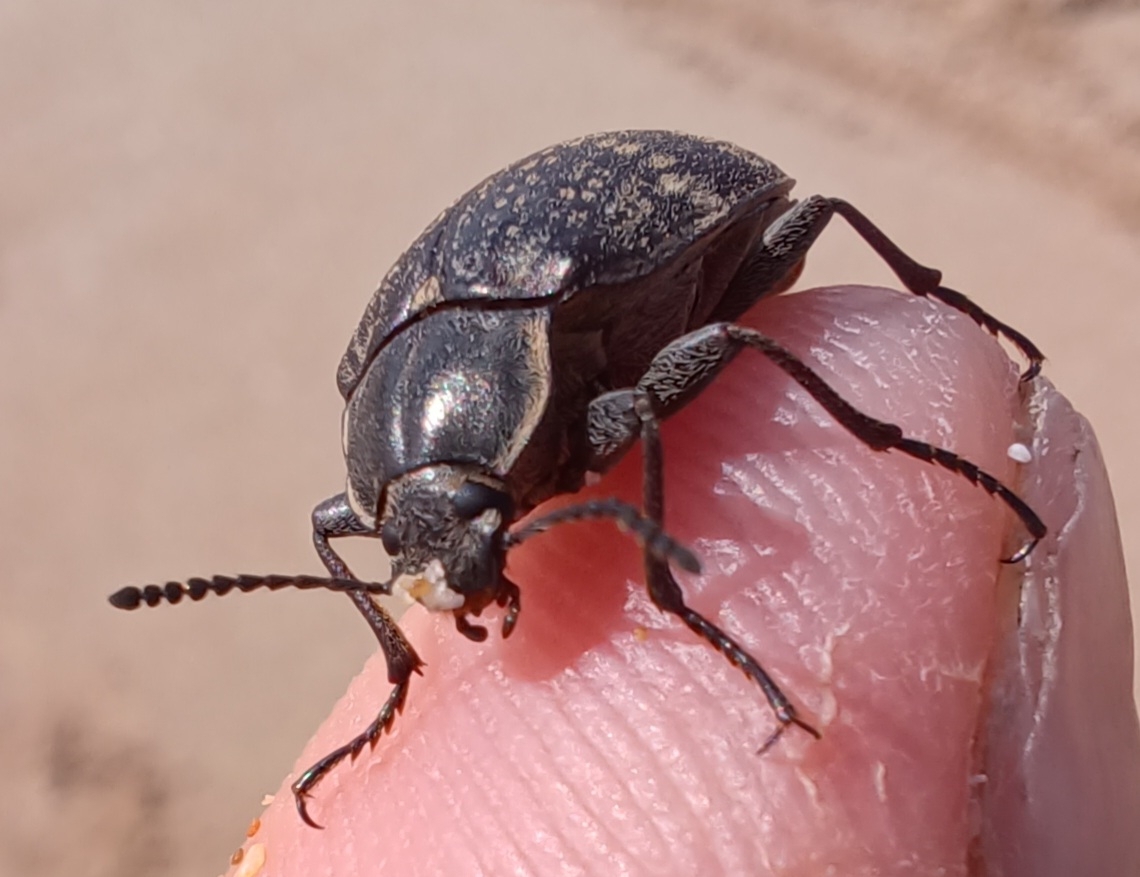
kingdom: Animalia
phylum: Arthropoda
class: Insecta
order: Coleoptera
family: Tenebrionidae
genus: Pachycoelia
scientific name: Pachycoelia
